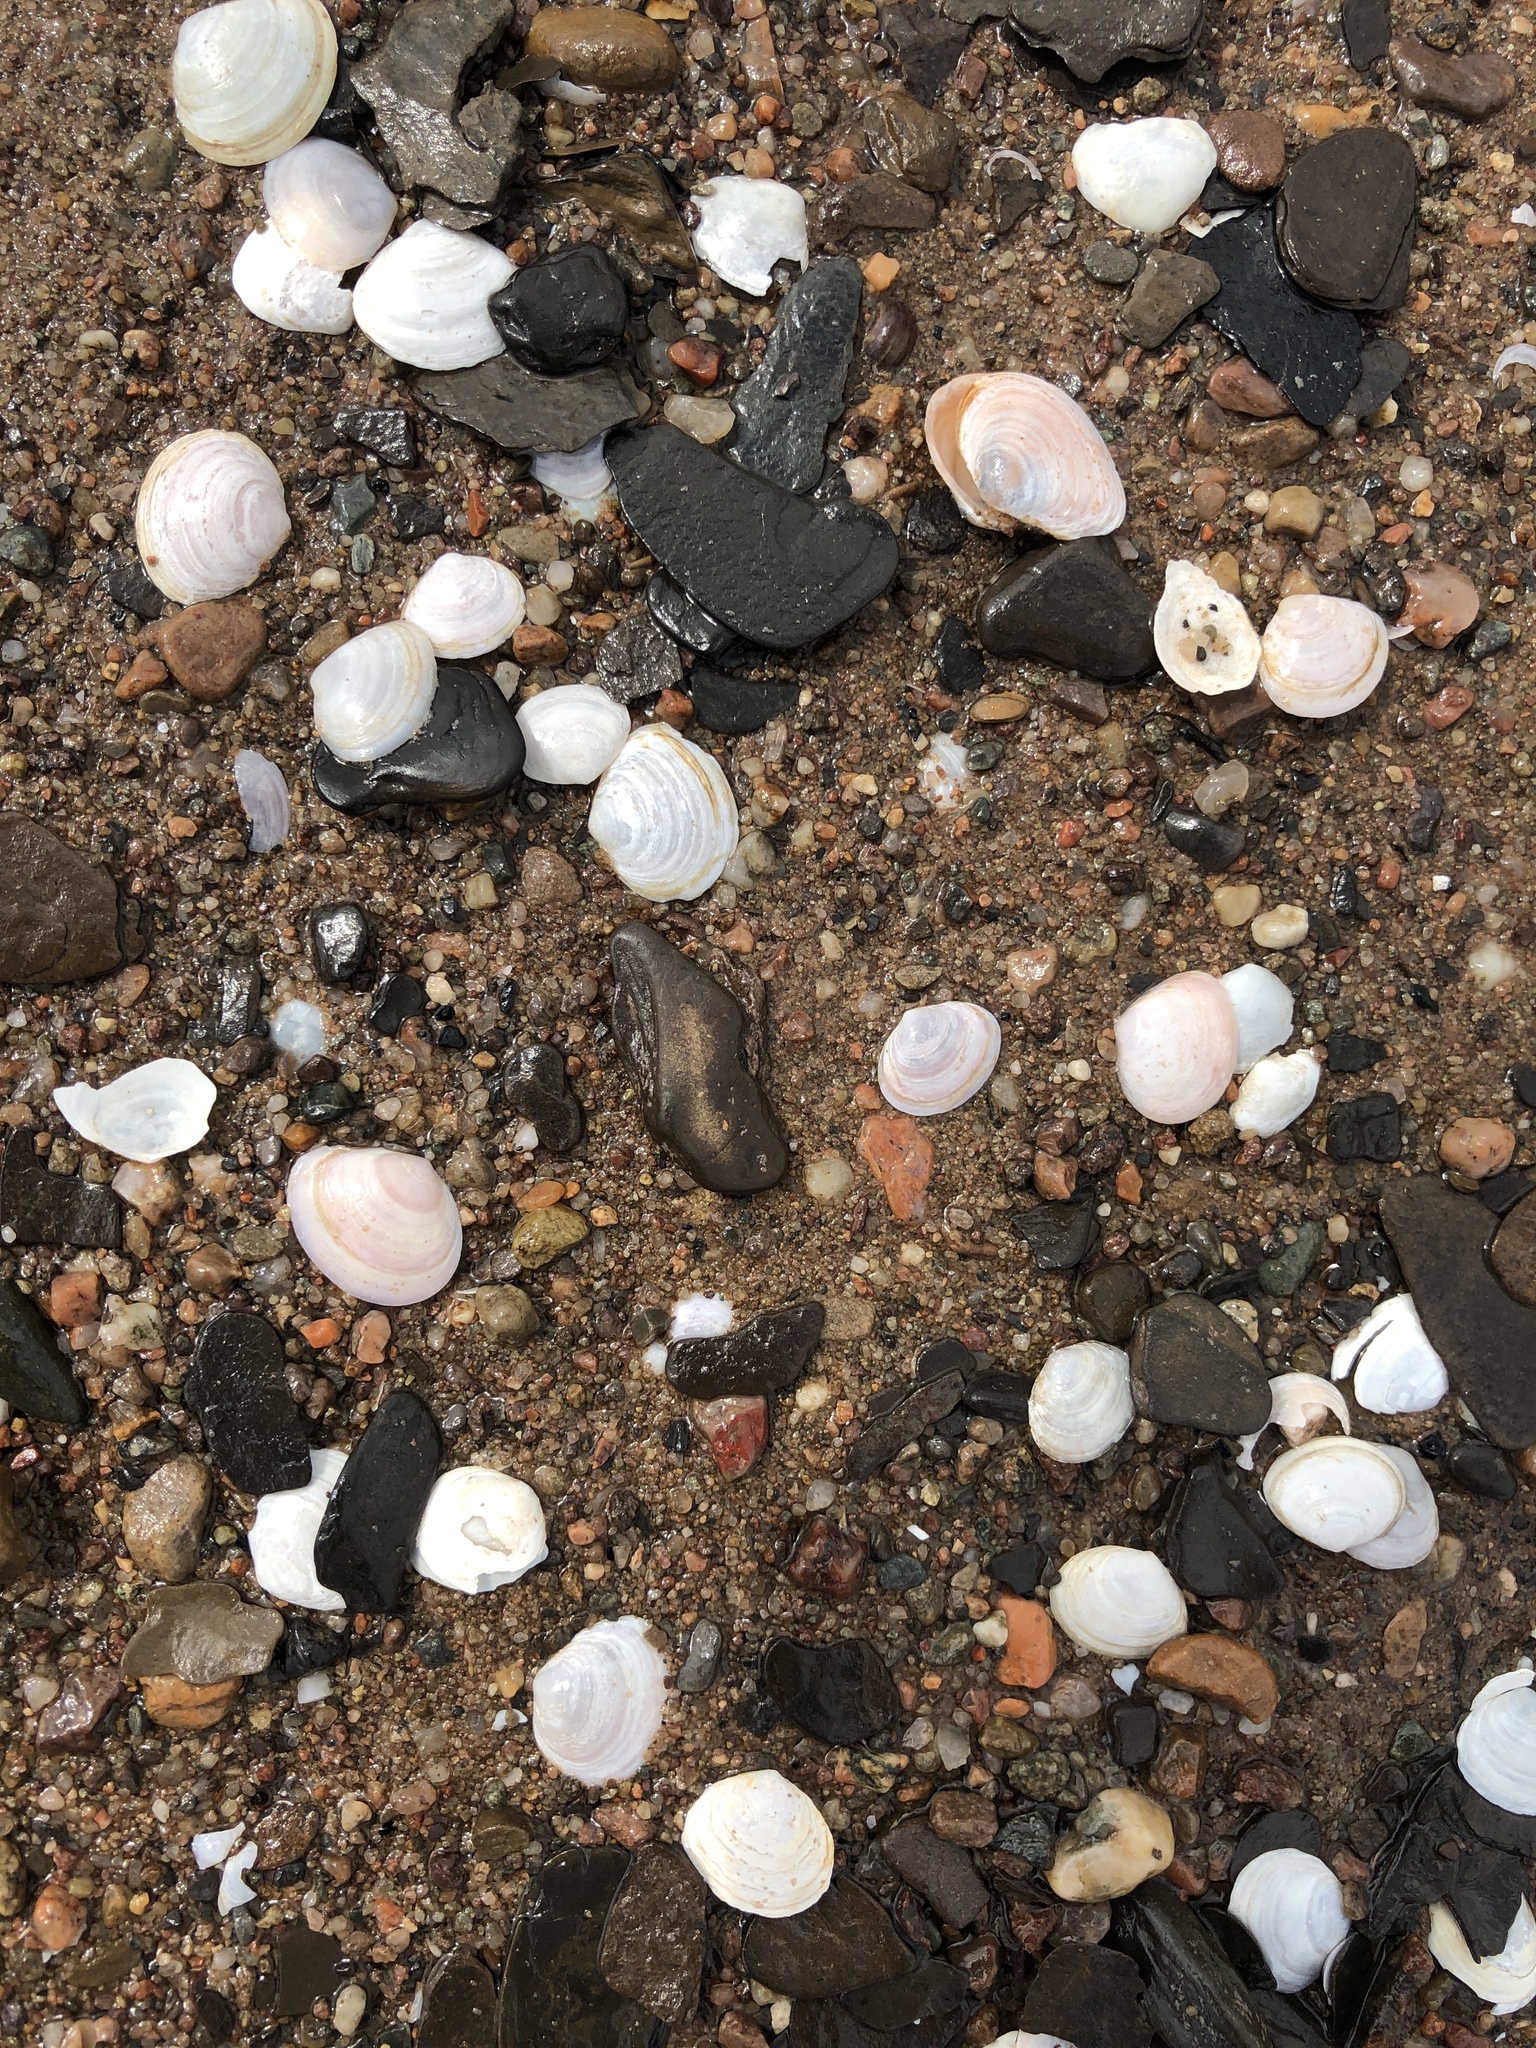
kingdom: Animalia
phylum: Mollusca
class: Bivalvia
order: Cardiida
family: Tellinidae
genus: Macoma
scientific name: Macoma petalum
